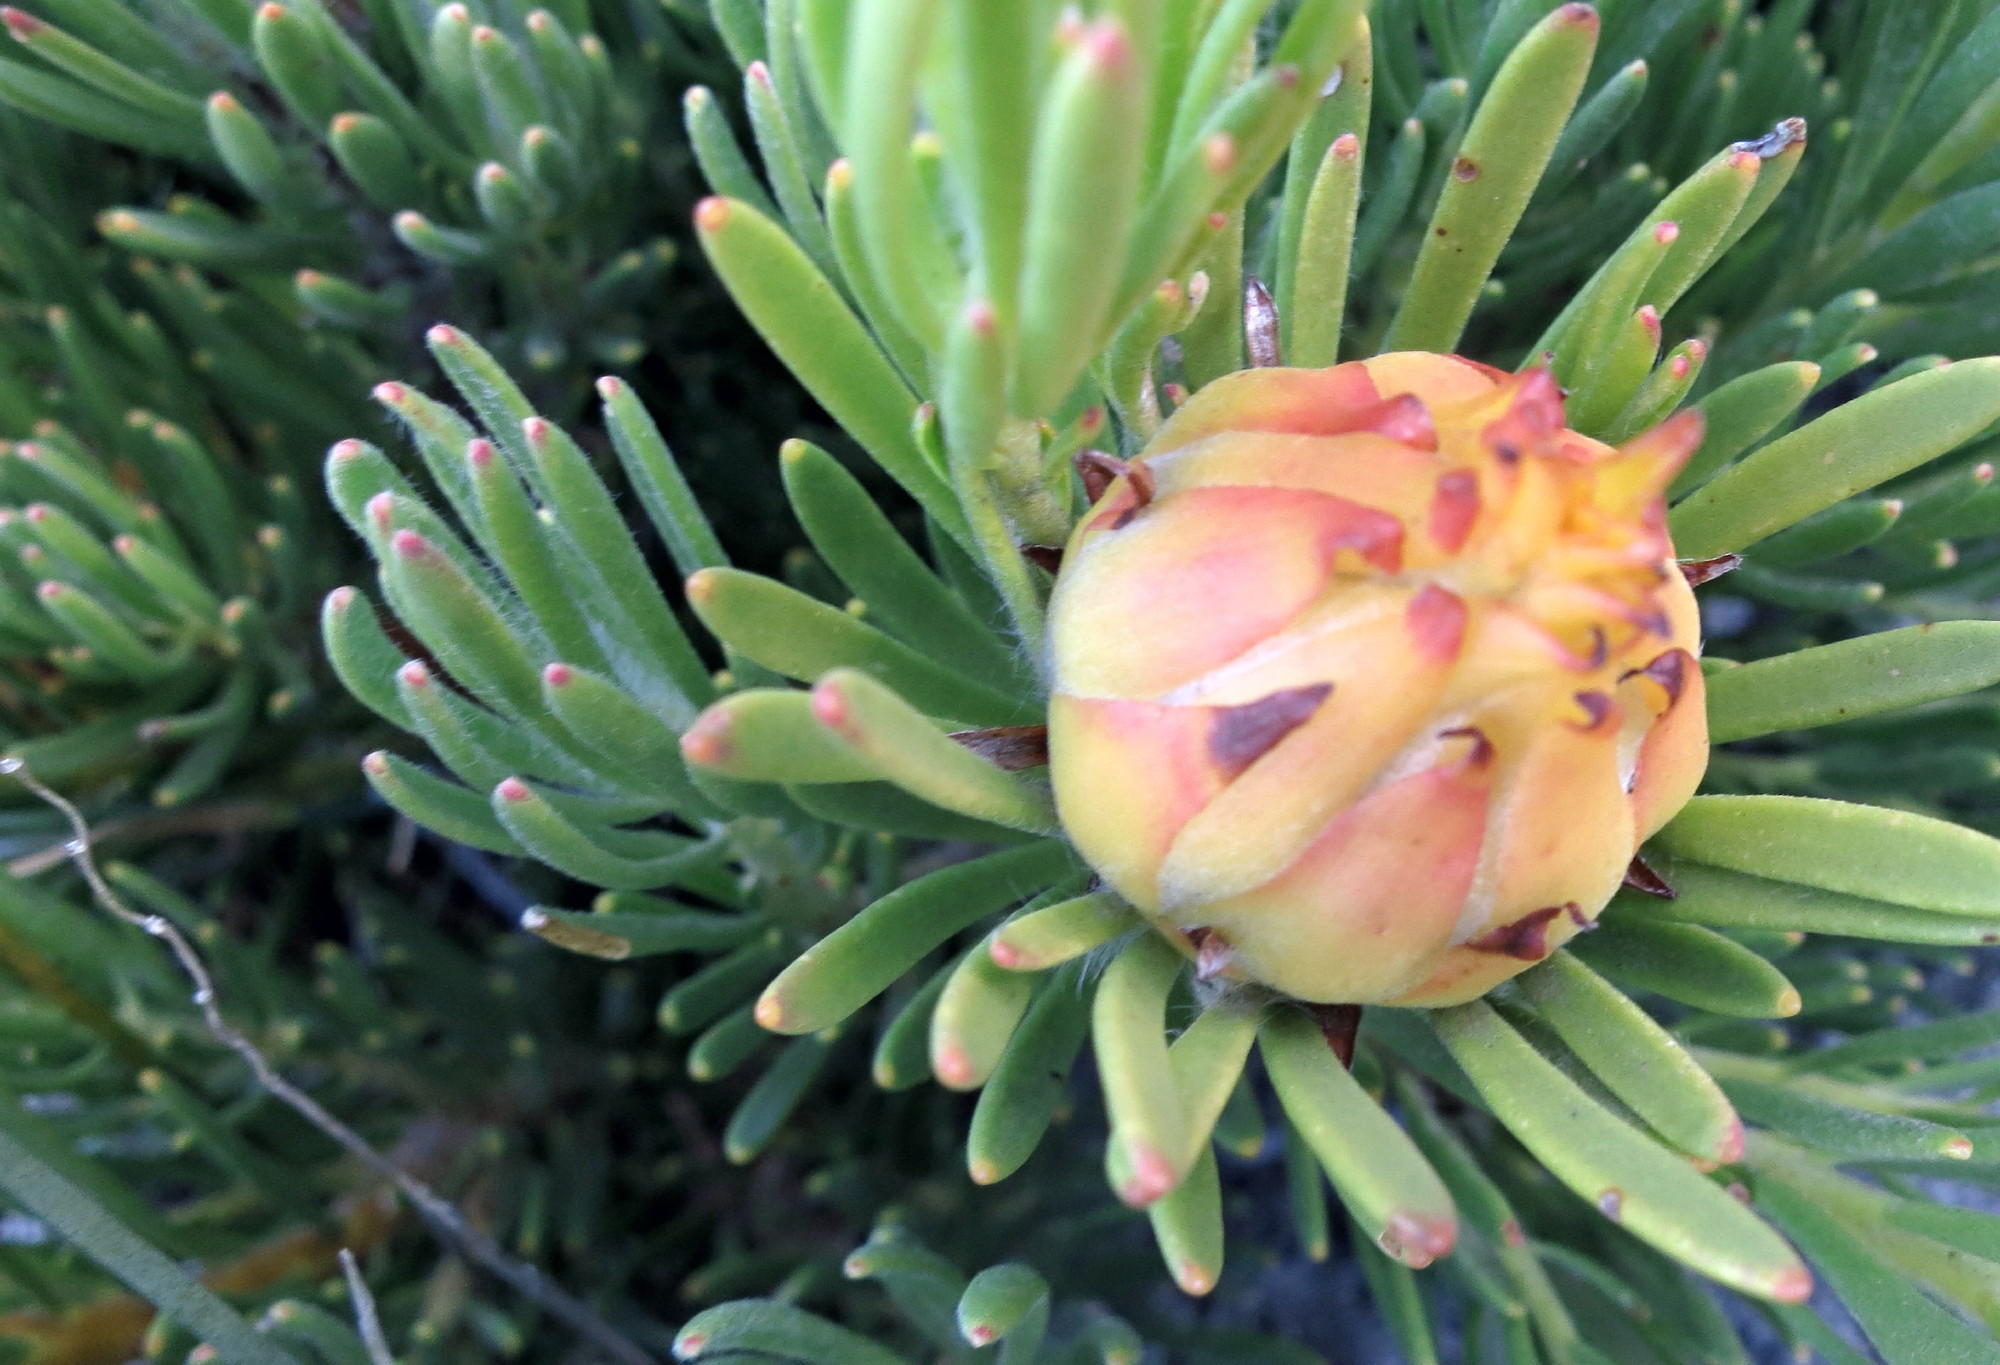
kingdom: Plantae
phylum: Tracheophyta
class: Magnoliopsida
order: Proteales
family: Proteaceae
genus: Leucadendron
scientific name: Leucadendron dregei
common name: Summit conebush
